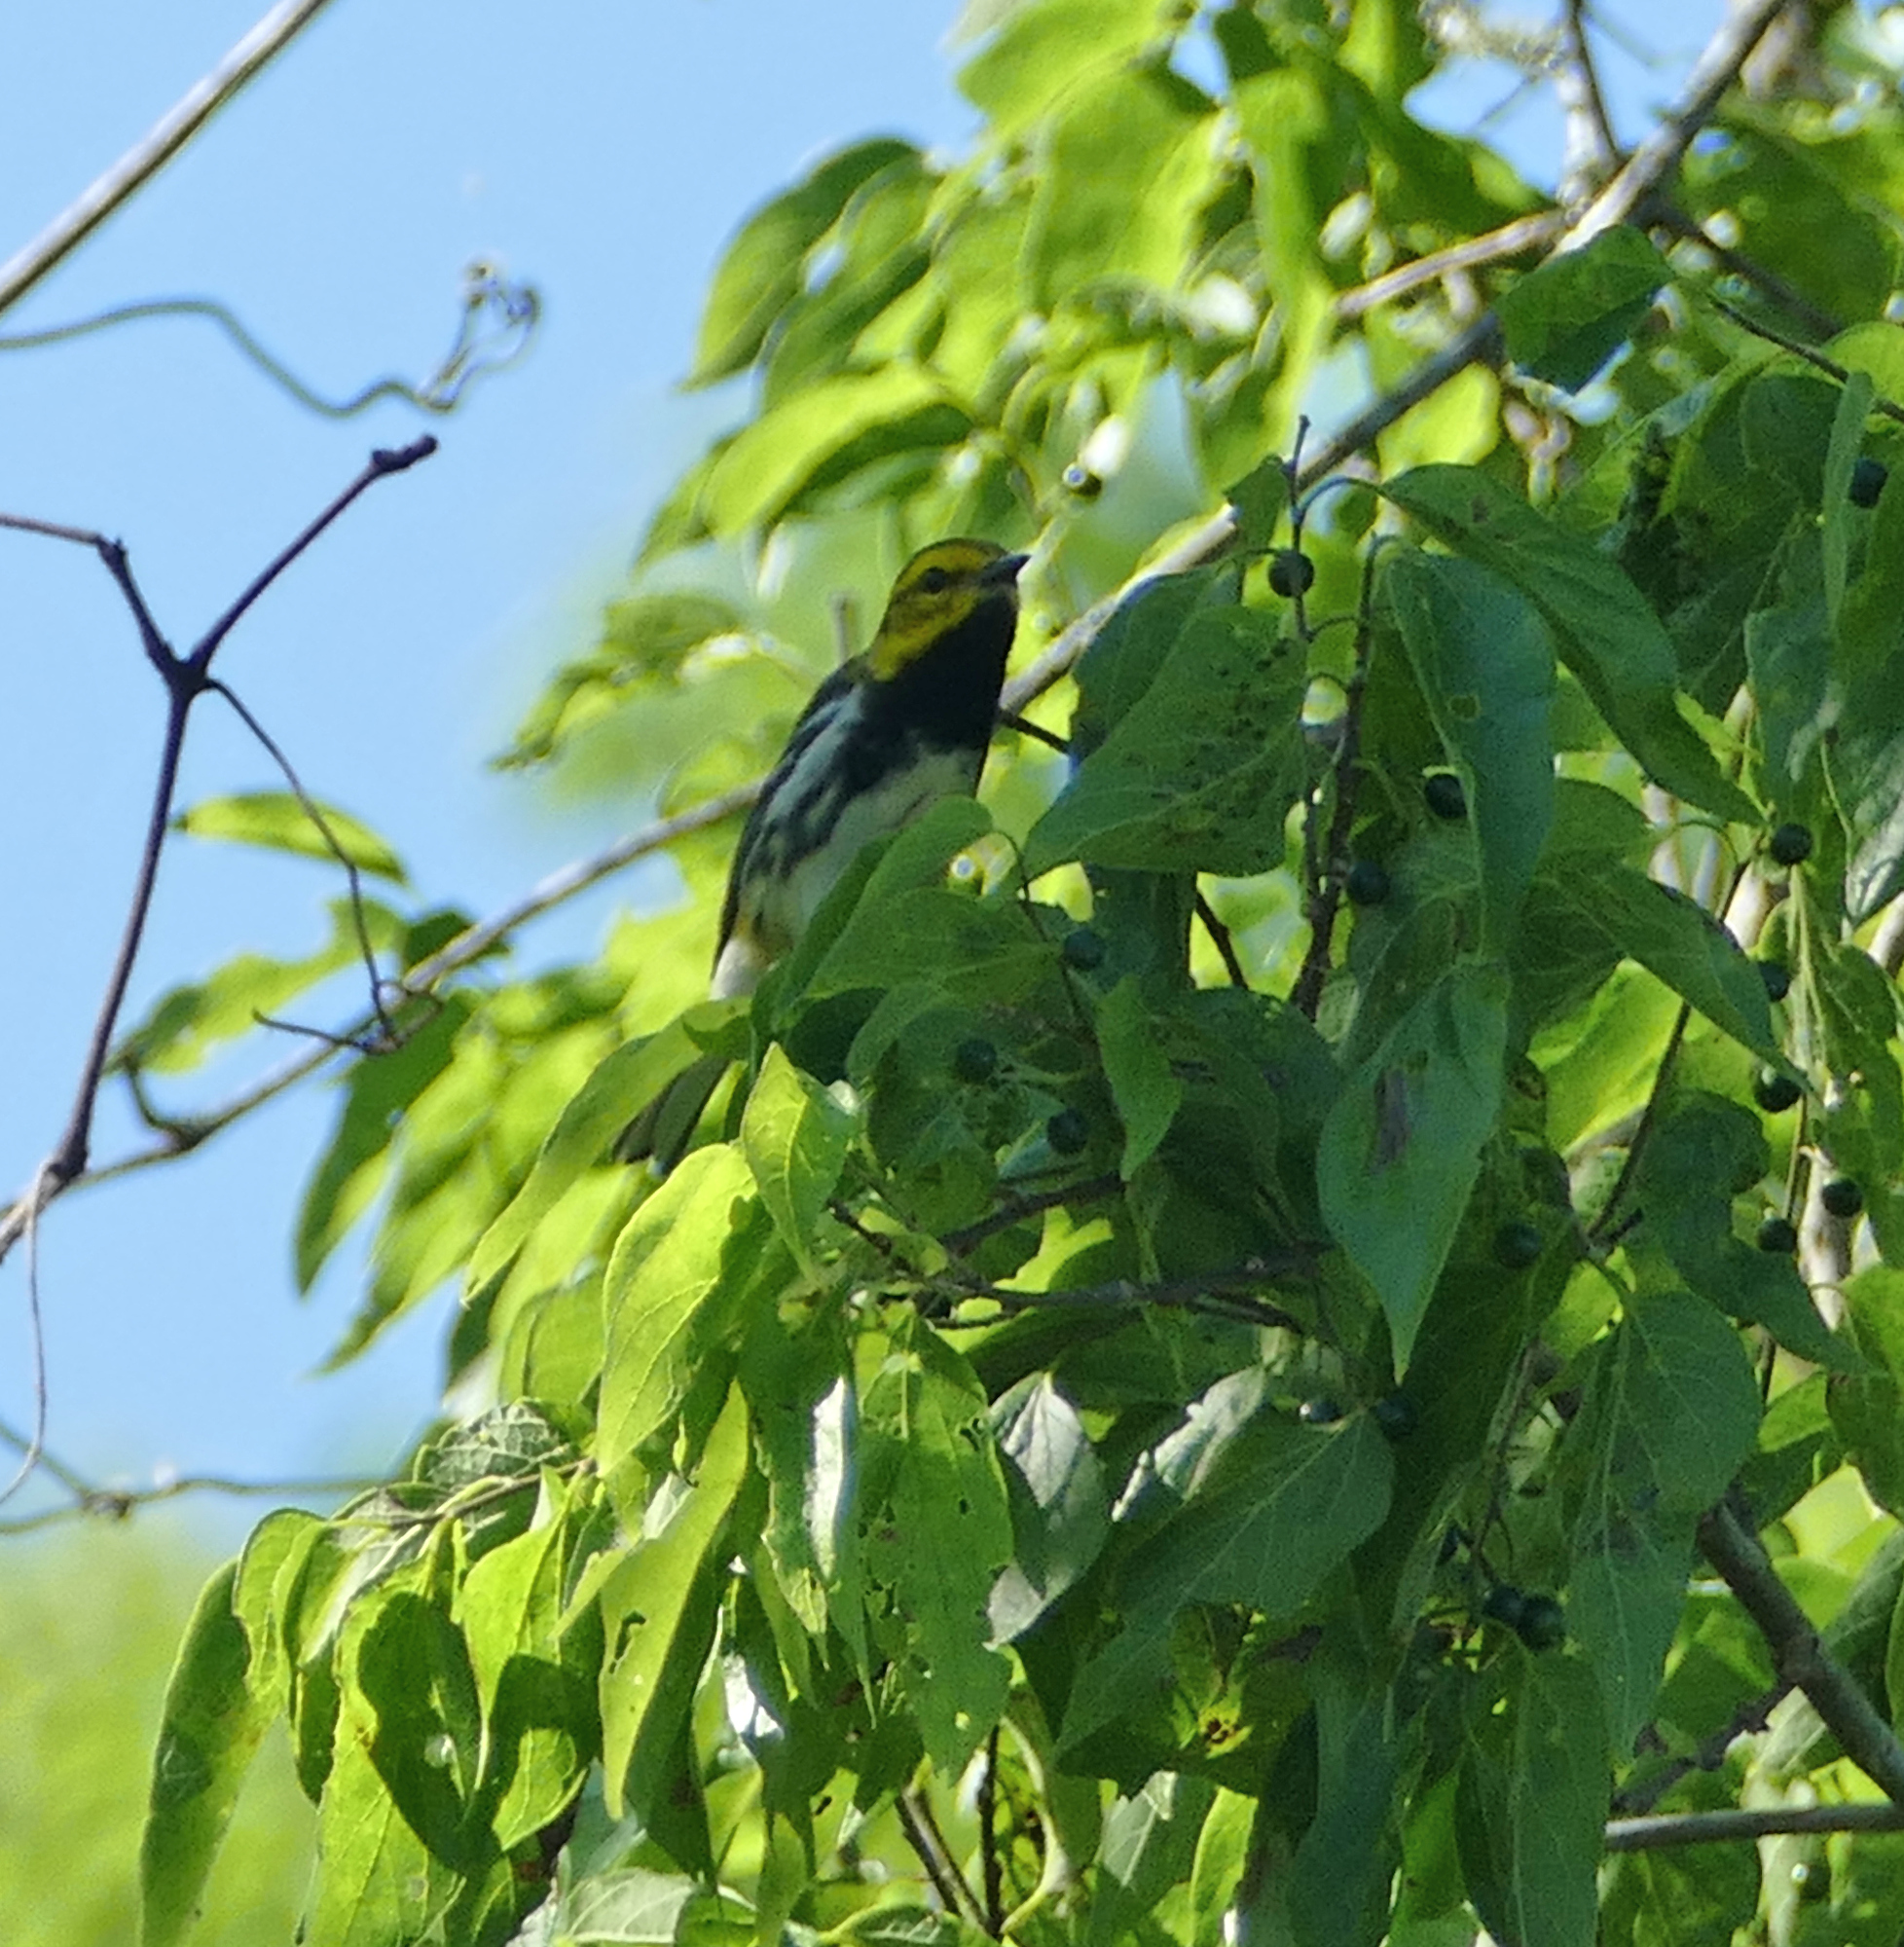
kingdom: Animalia
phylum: Chordata
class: Aves
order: Passeriformes
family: Parulidae
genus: Setophaga
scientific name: Setophaga virens
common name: Black-throated green warbler
